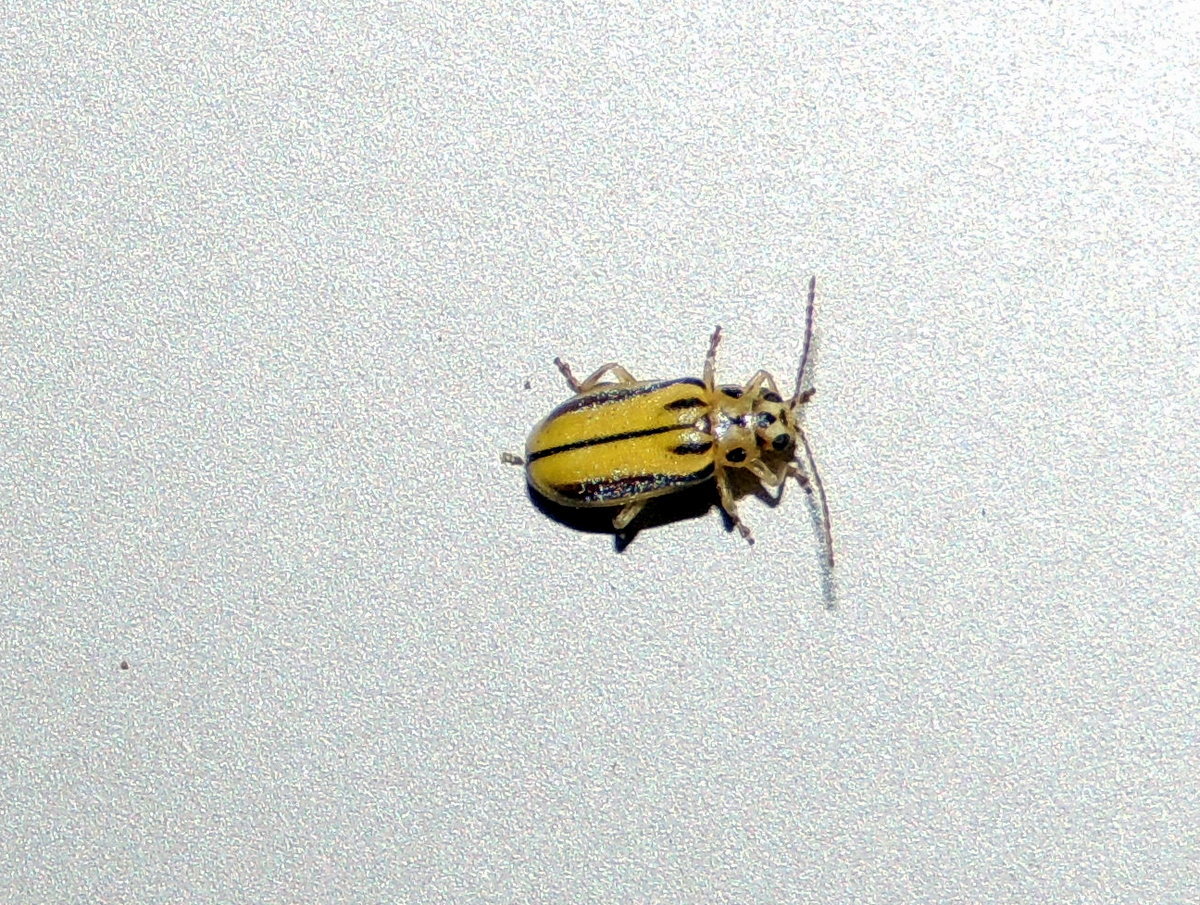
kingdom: Animalia
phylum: Arthropoda
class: Insecta
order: Coleoptera
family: Chrysomelidae
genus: Xanthogaleruca
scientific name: Xanthogaleruca luteola
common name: Elm leaf beetle
